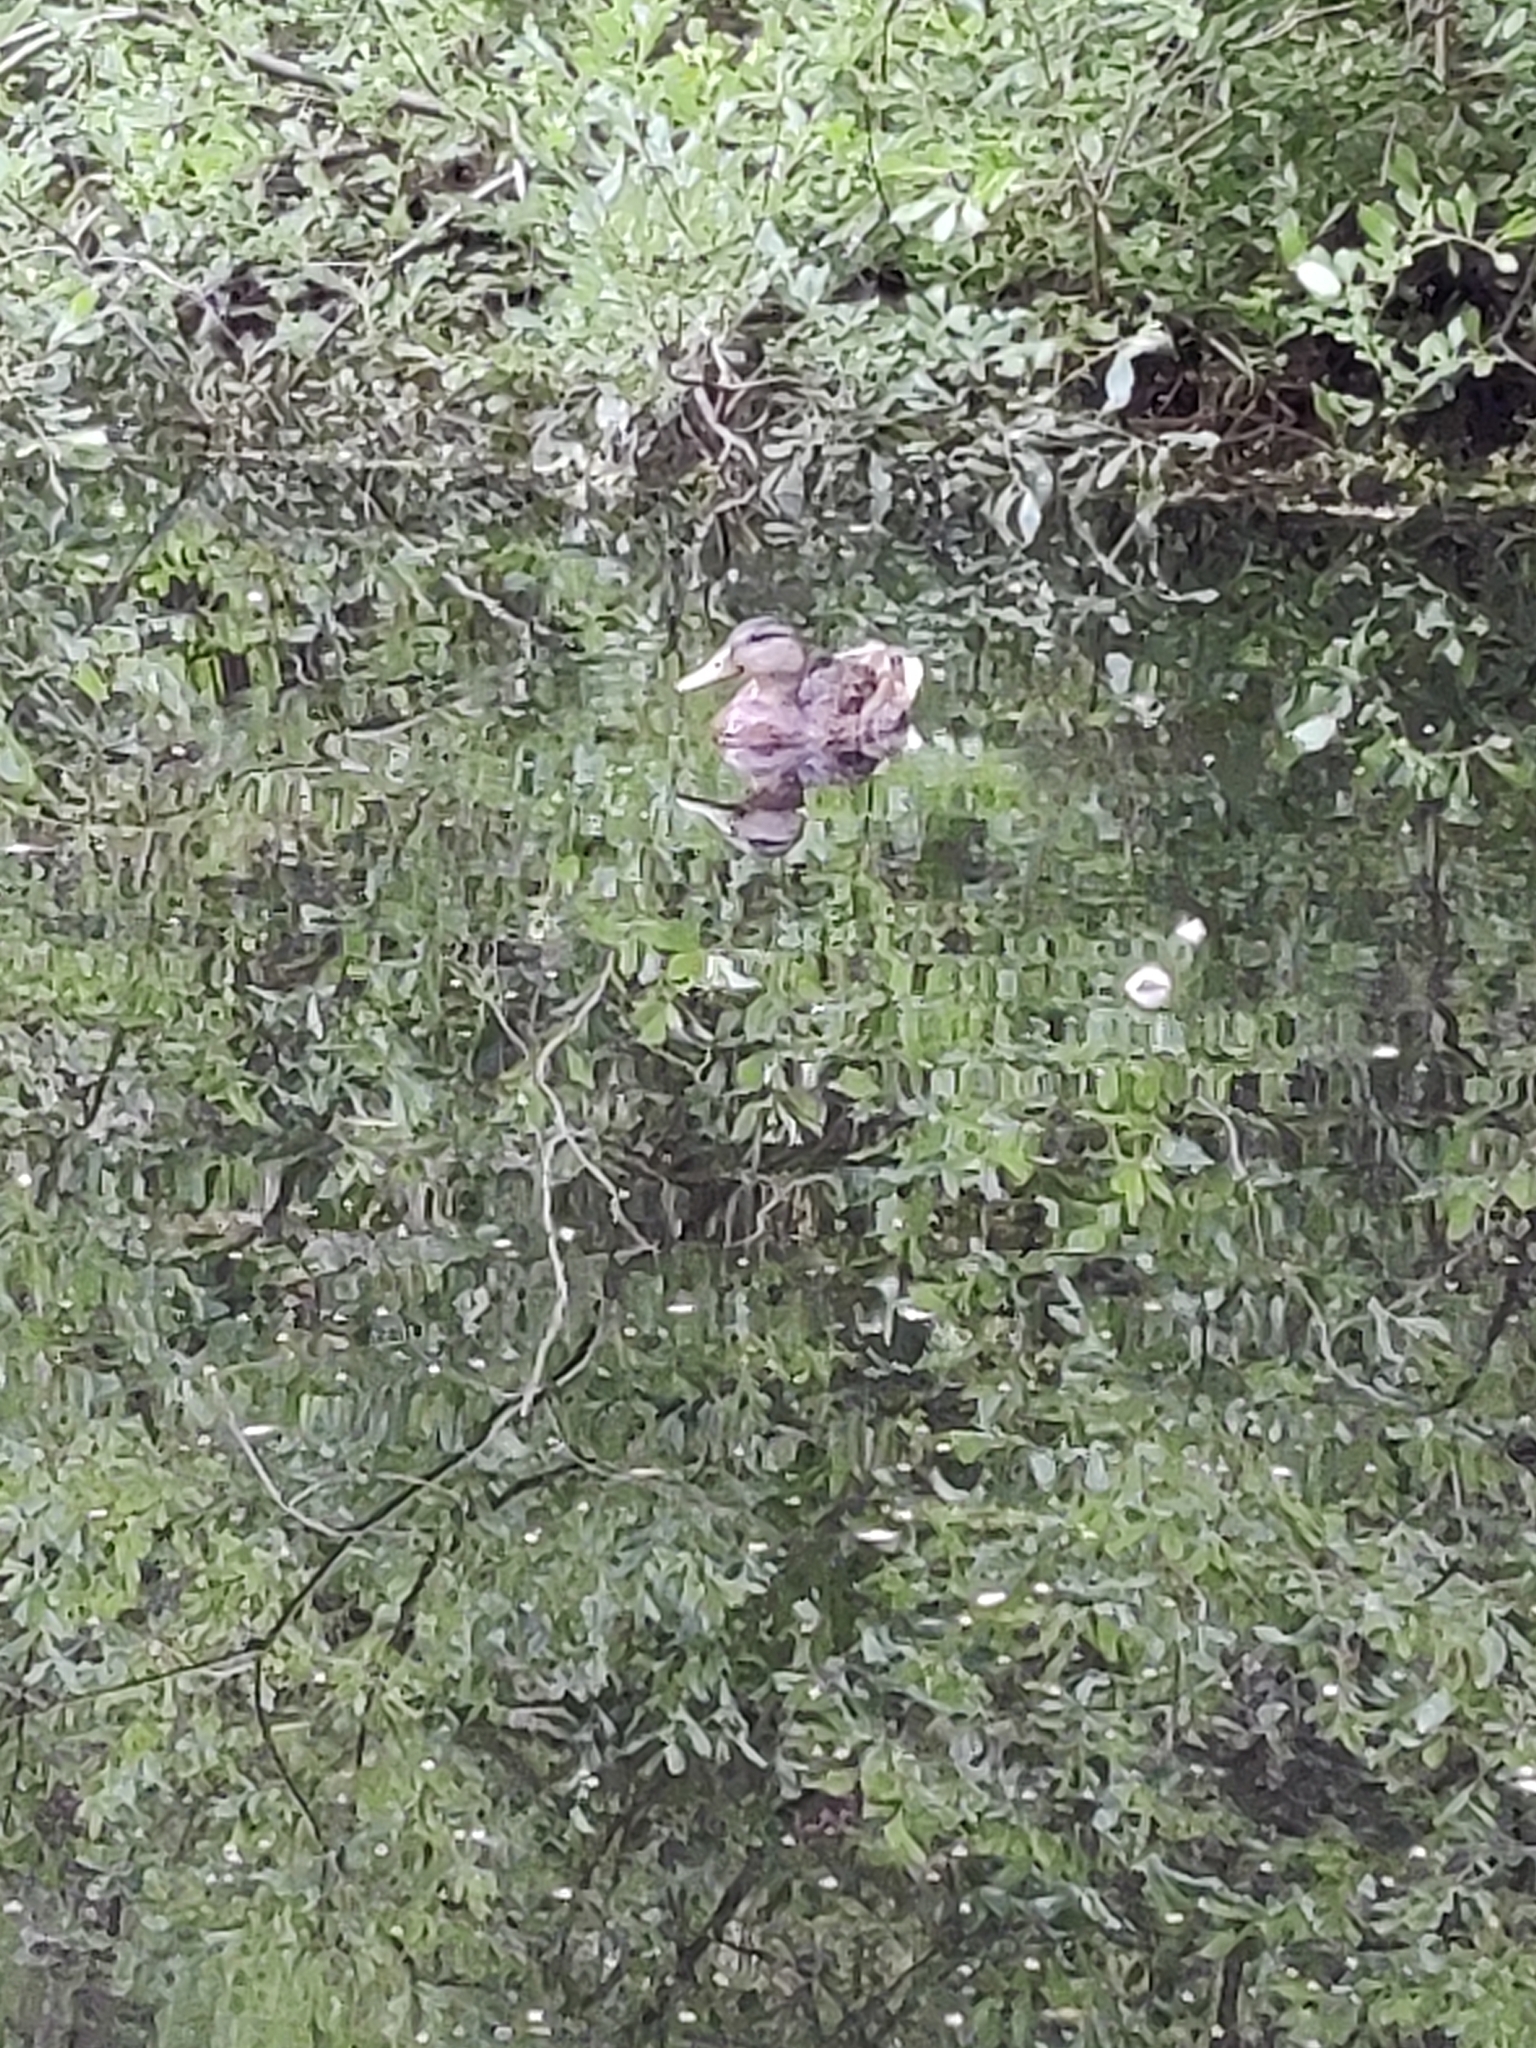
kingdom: Animalia
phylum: Chordata
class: Aves
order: Anseriformes
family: Anatidae
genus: Anas
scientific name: Anas platyrhynchos
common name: Mallard
